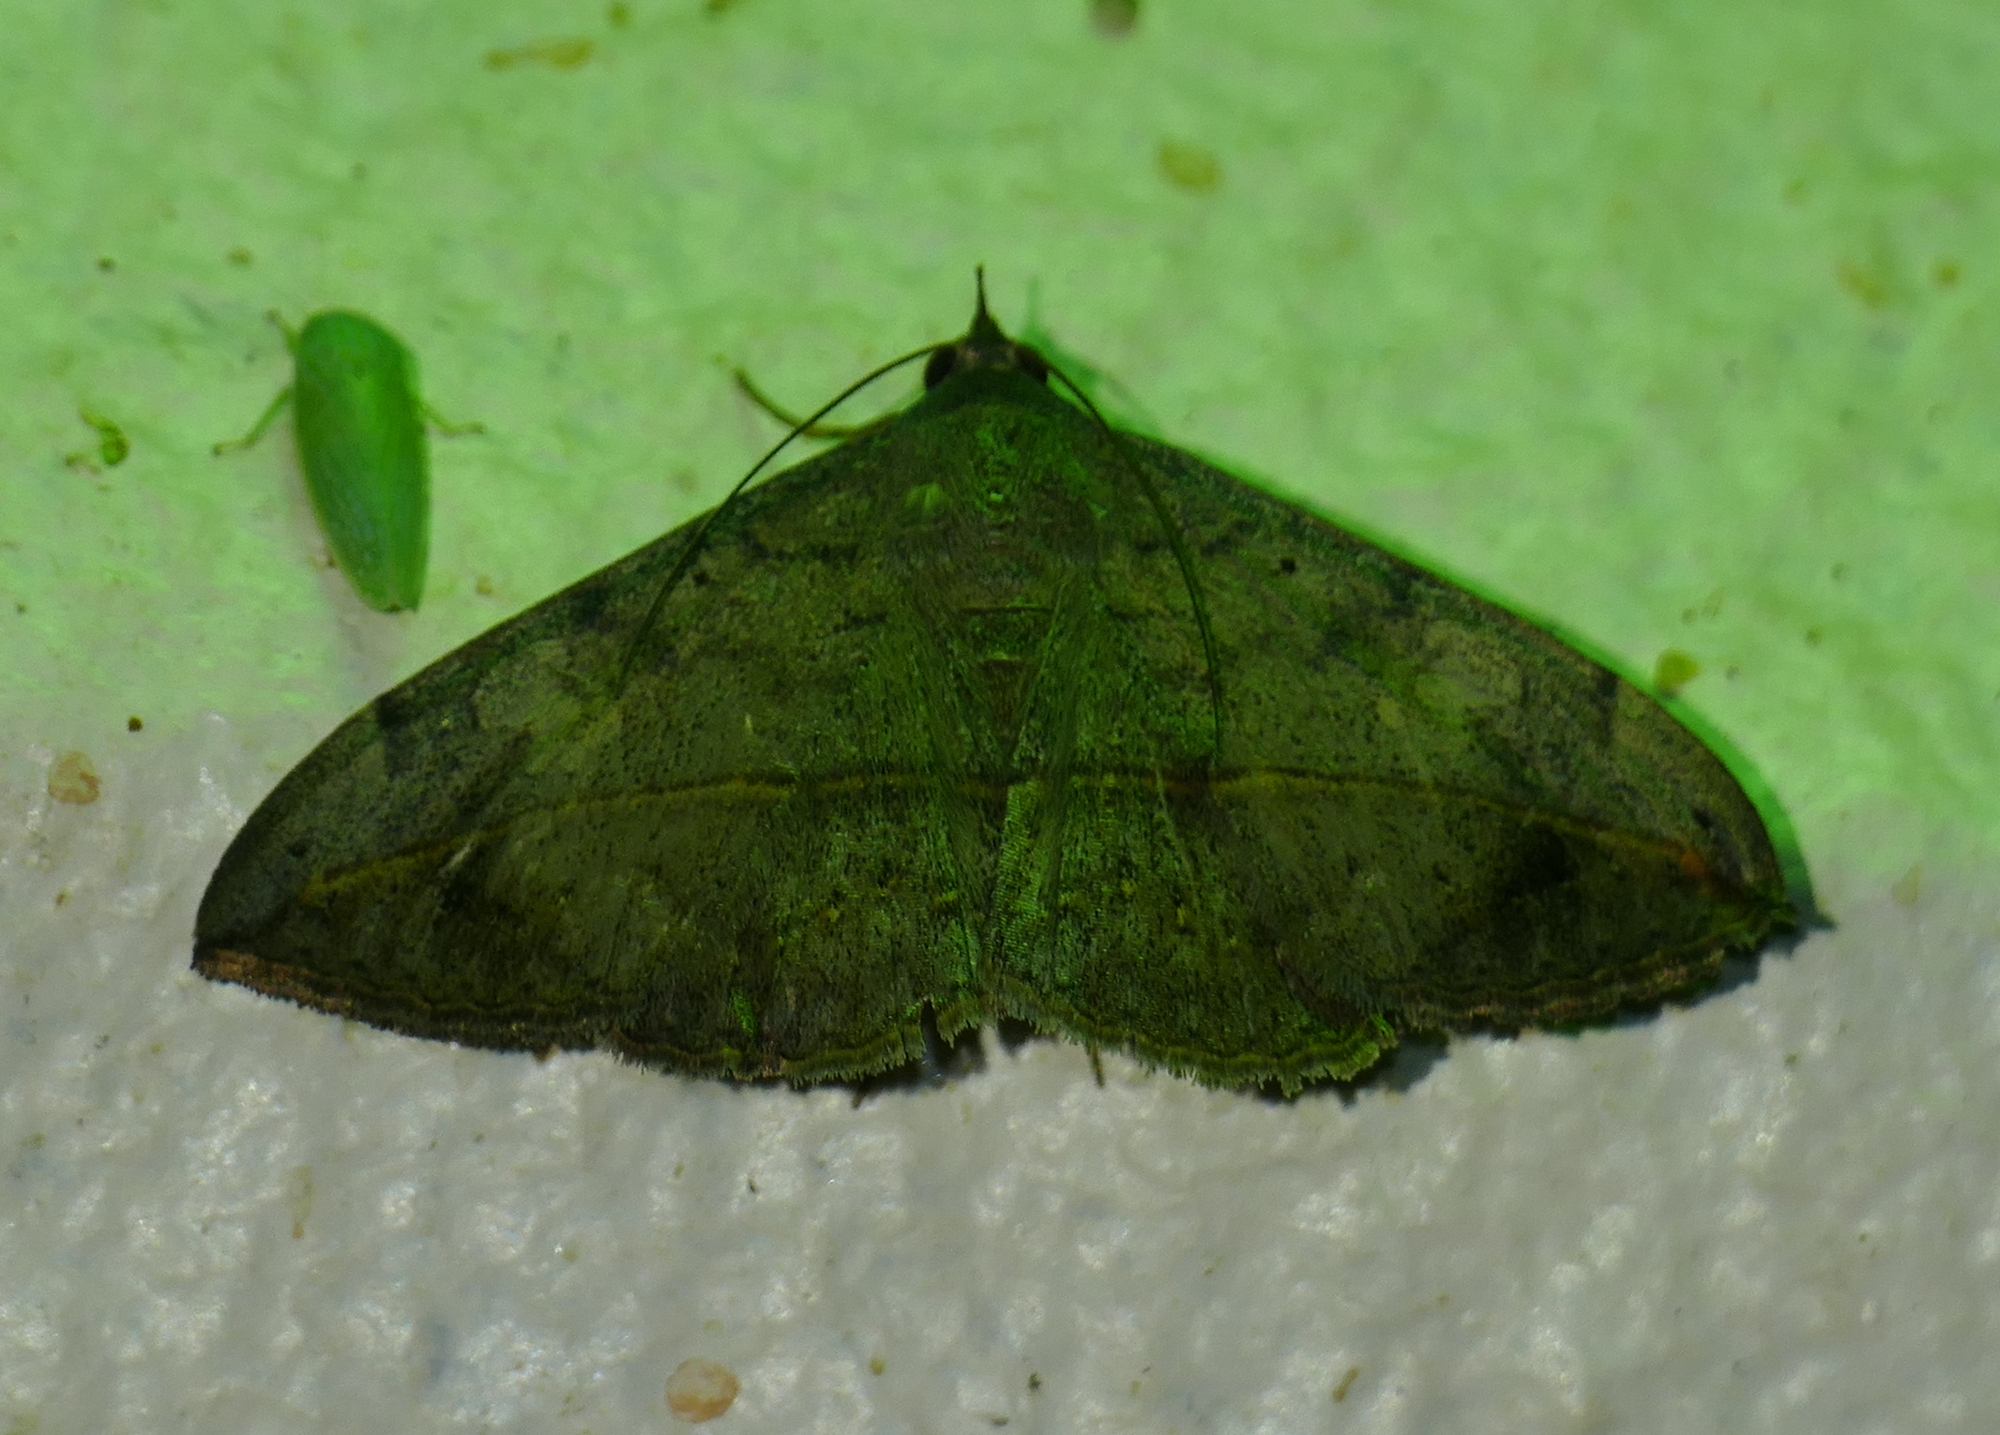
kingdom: Animalia
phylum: Arthropoda
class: Insecta
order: Lepidoptera
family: Erebidae
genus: Anticarsia
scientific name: Anticarsia gemmatalis
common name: Cutworm moth
